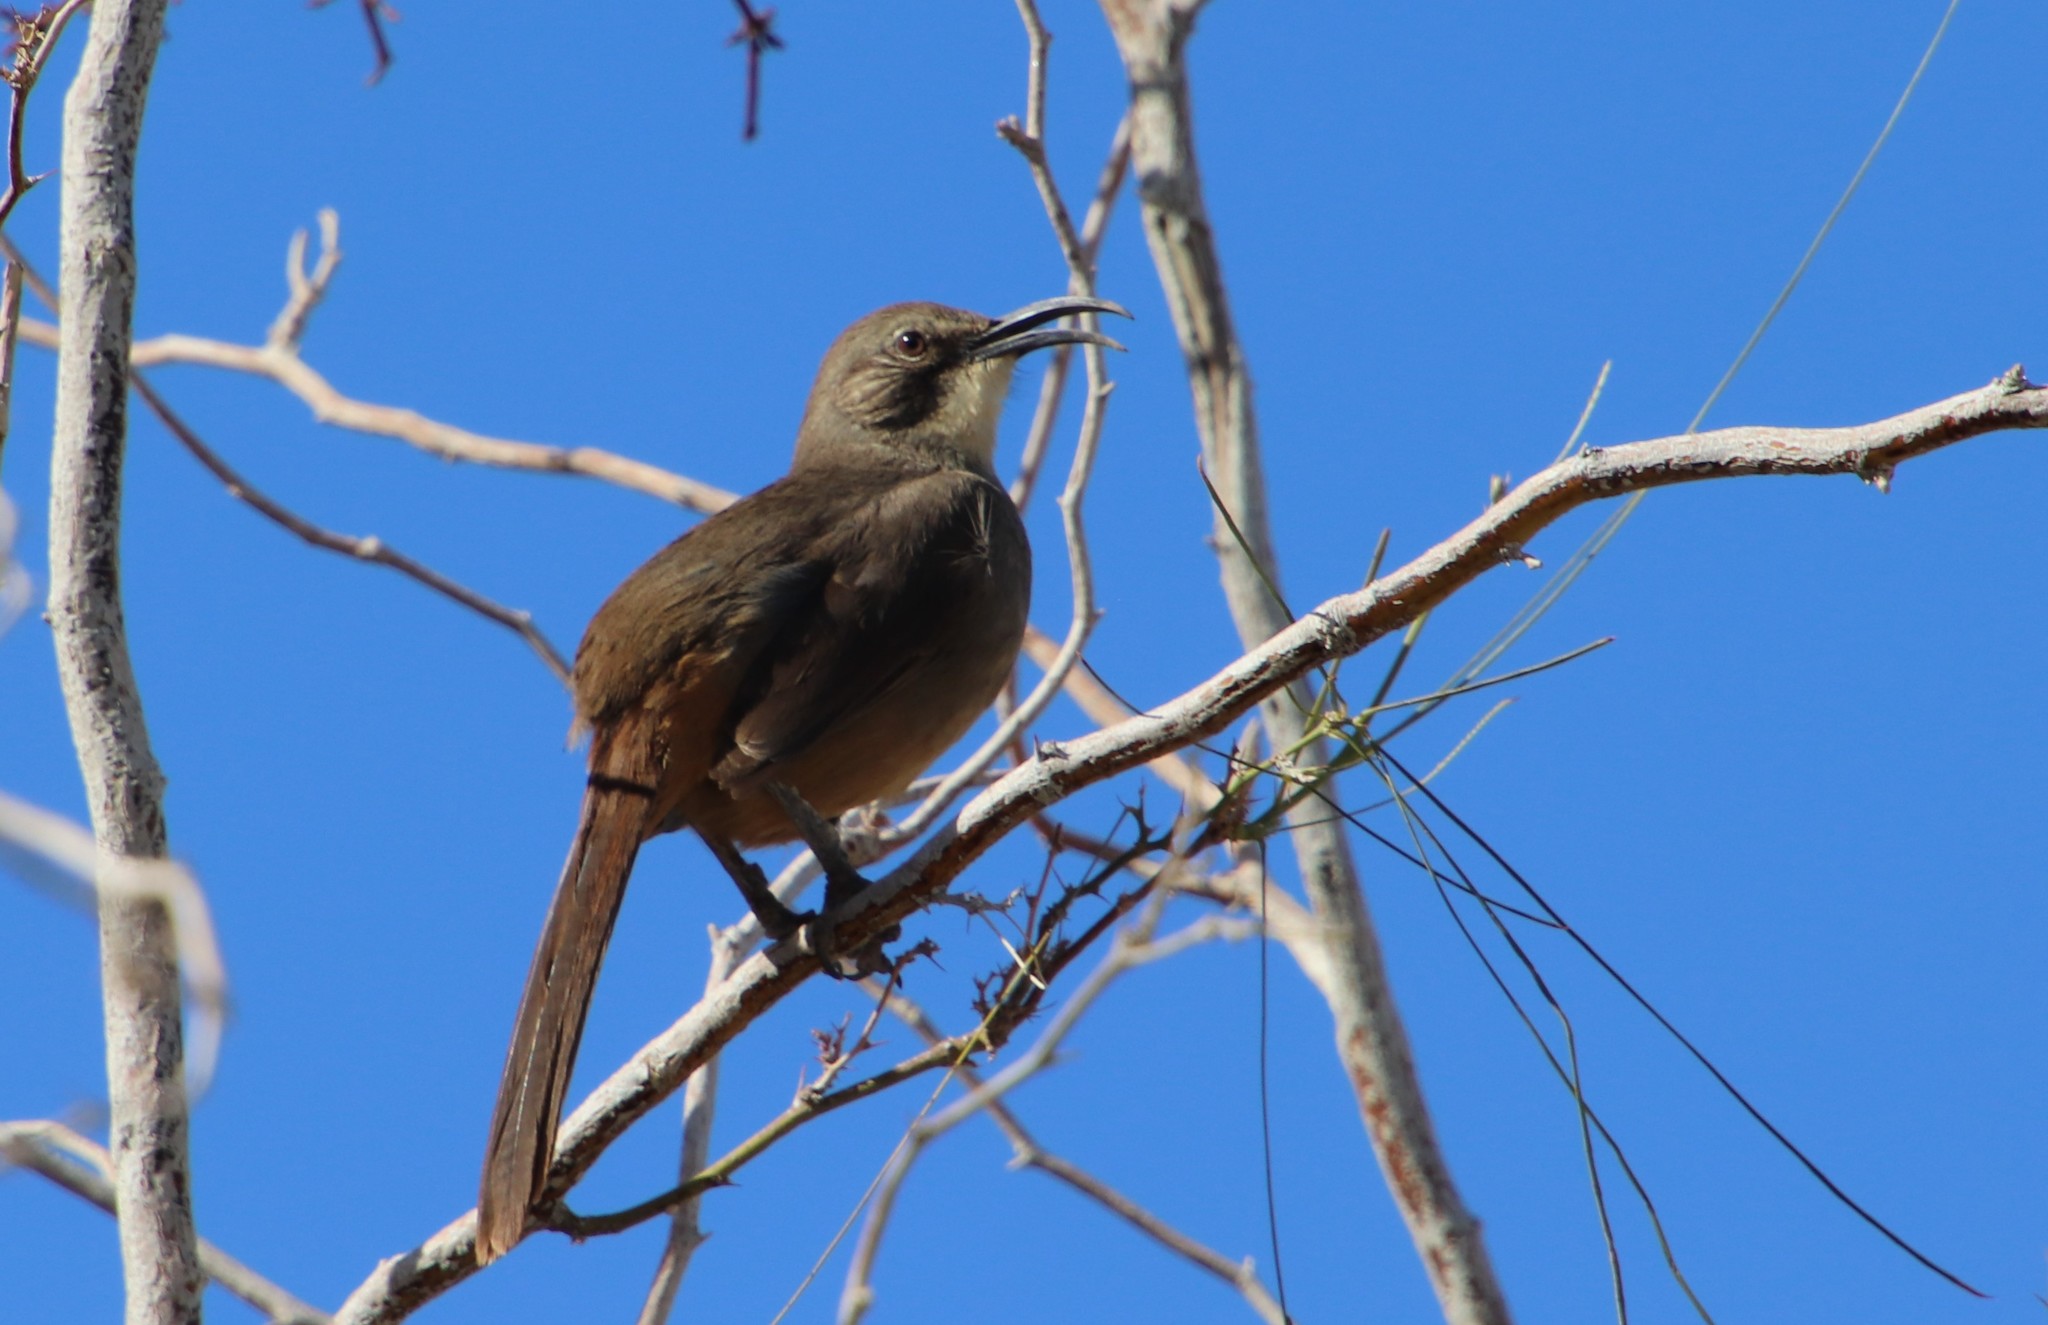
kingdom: Animalia
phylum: Chordata
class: Aves
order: Passeriformes
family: Mimidae
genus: Toxostoma
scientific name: Toxostoma redivivum
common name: California thrasher
